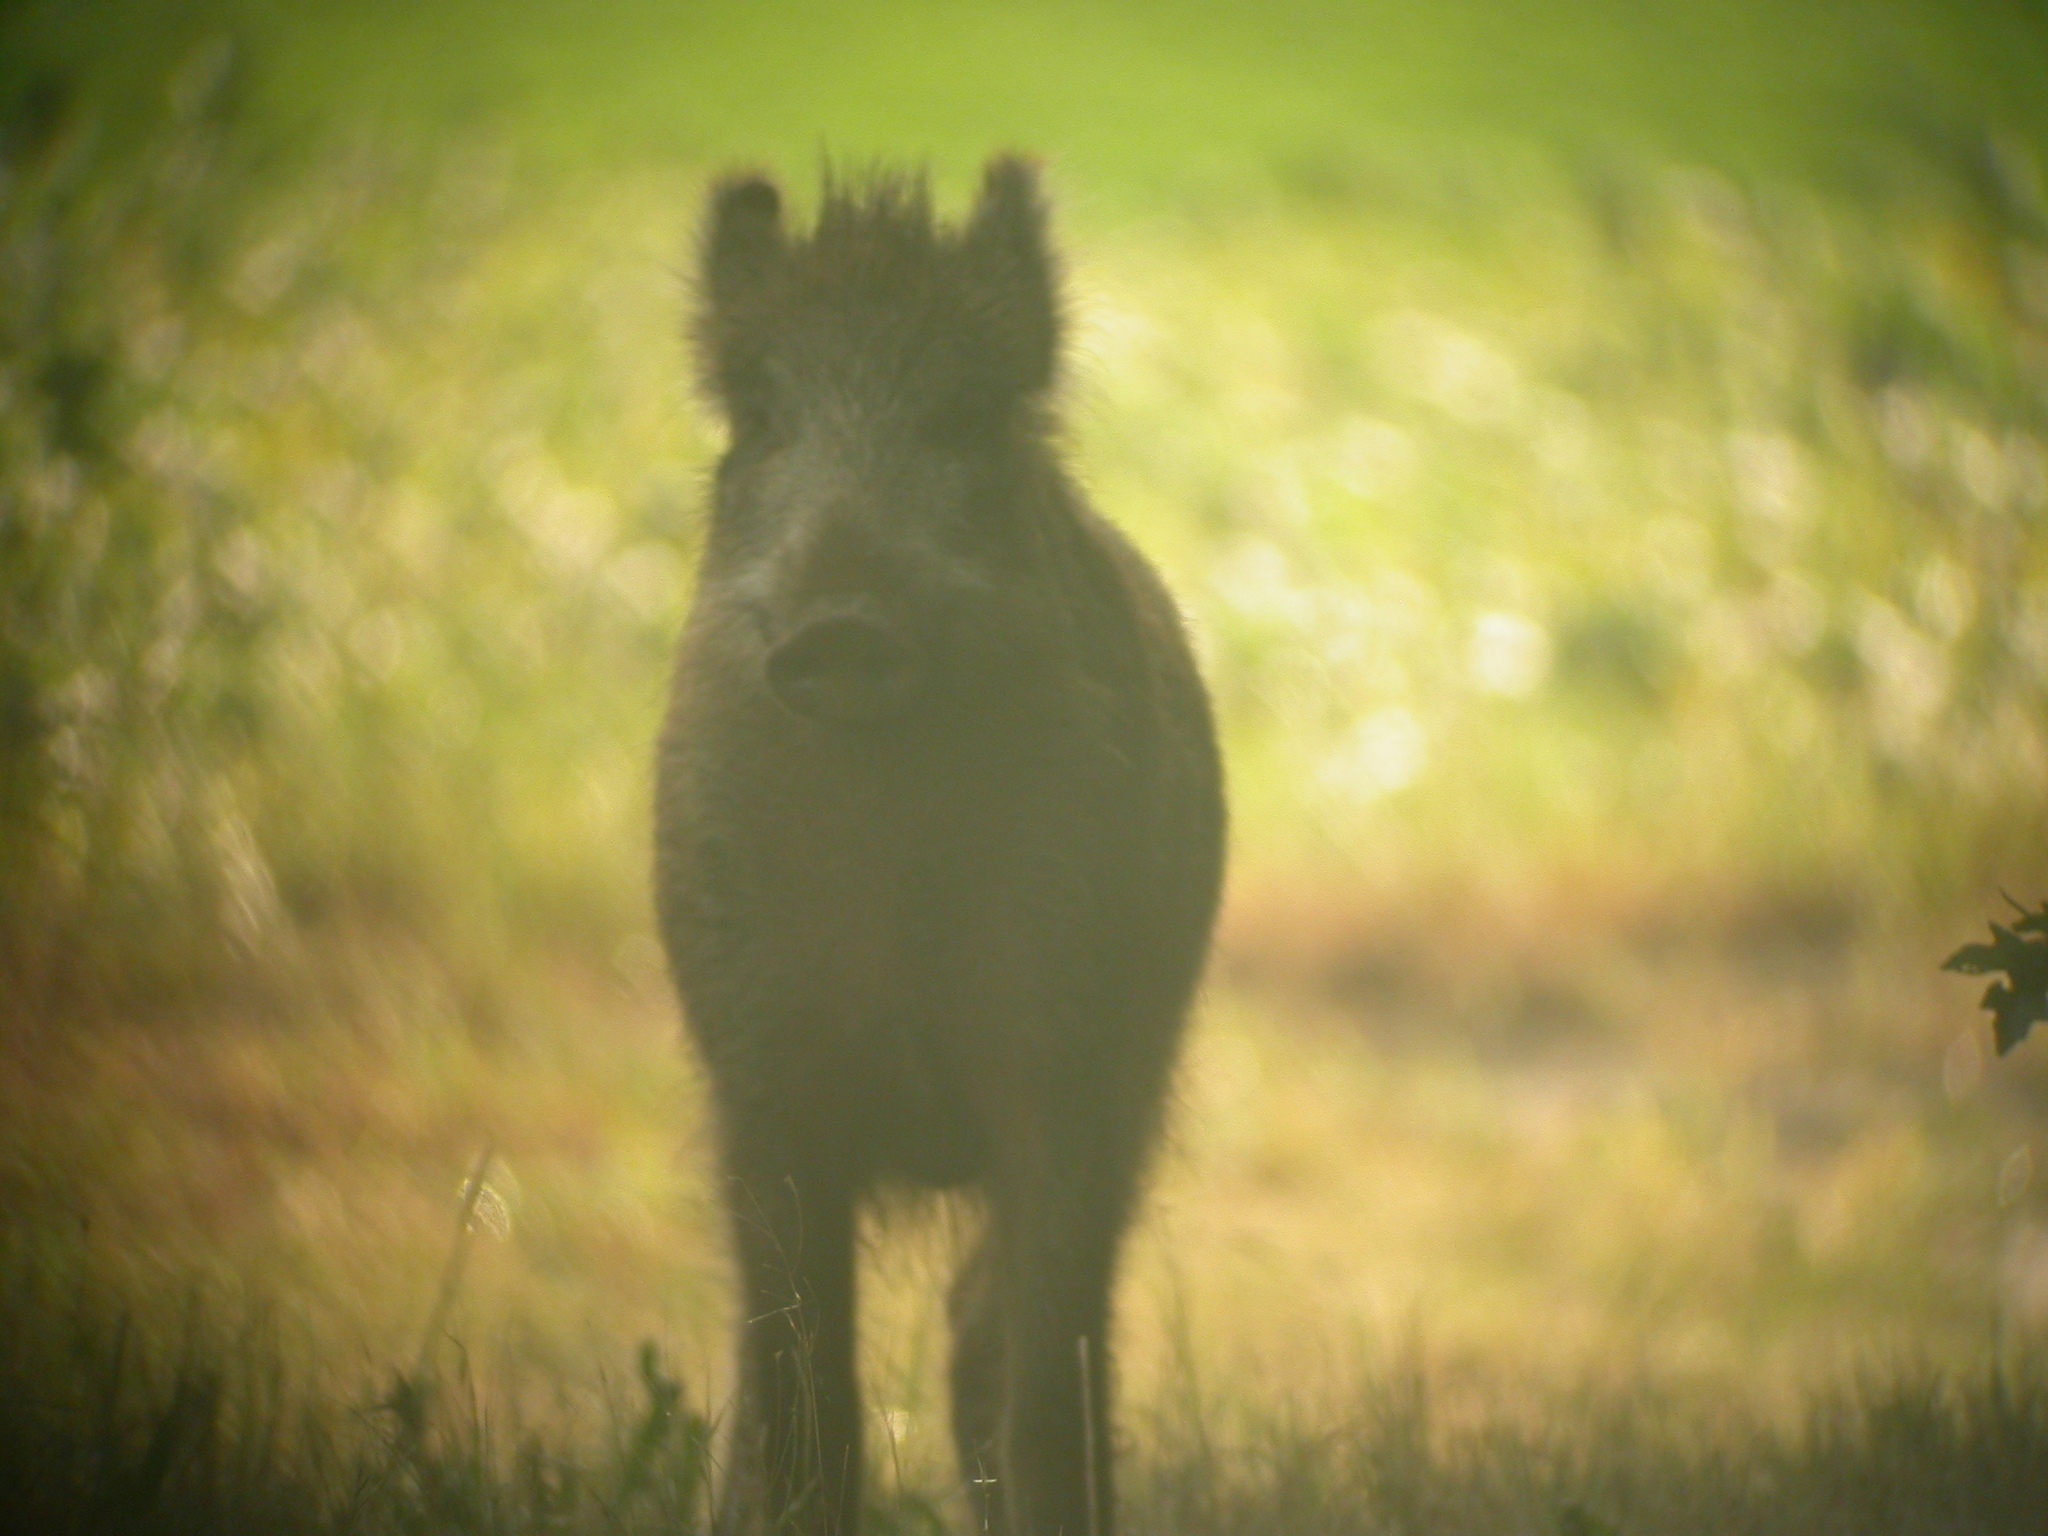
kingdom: Animalia
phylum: Chordata
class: Mammalia
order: Artiodactyla
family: Suidae
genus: Sus
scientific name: Sus scrofa
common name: Wild boar
